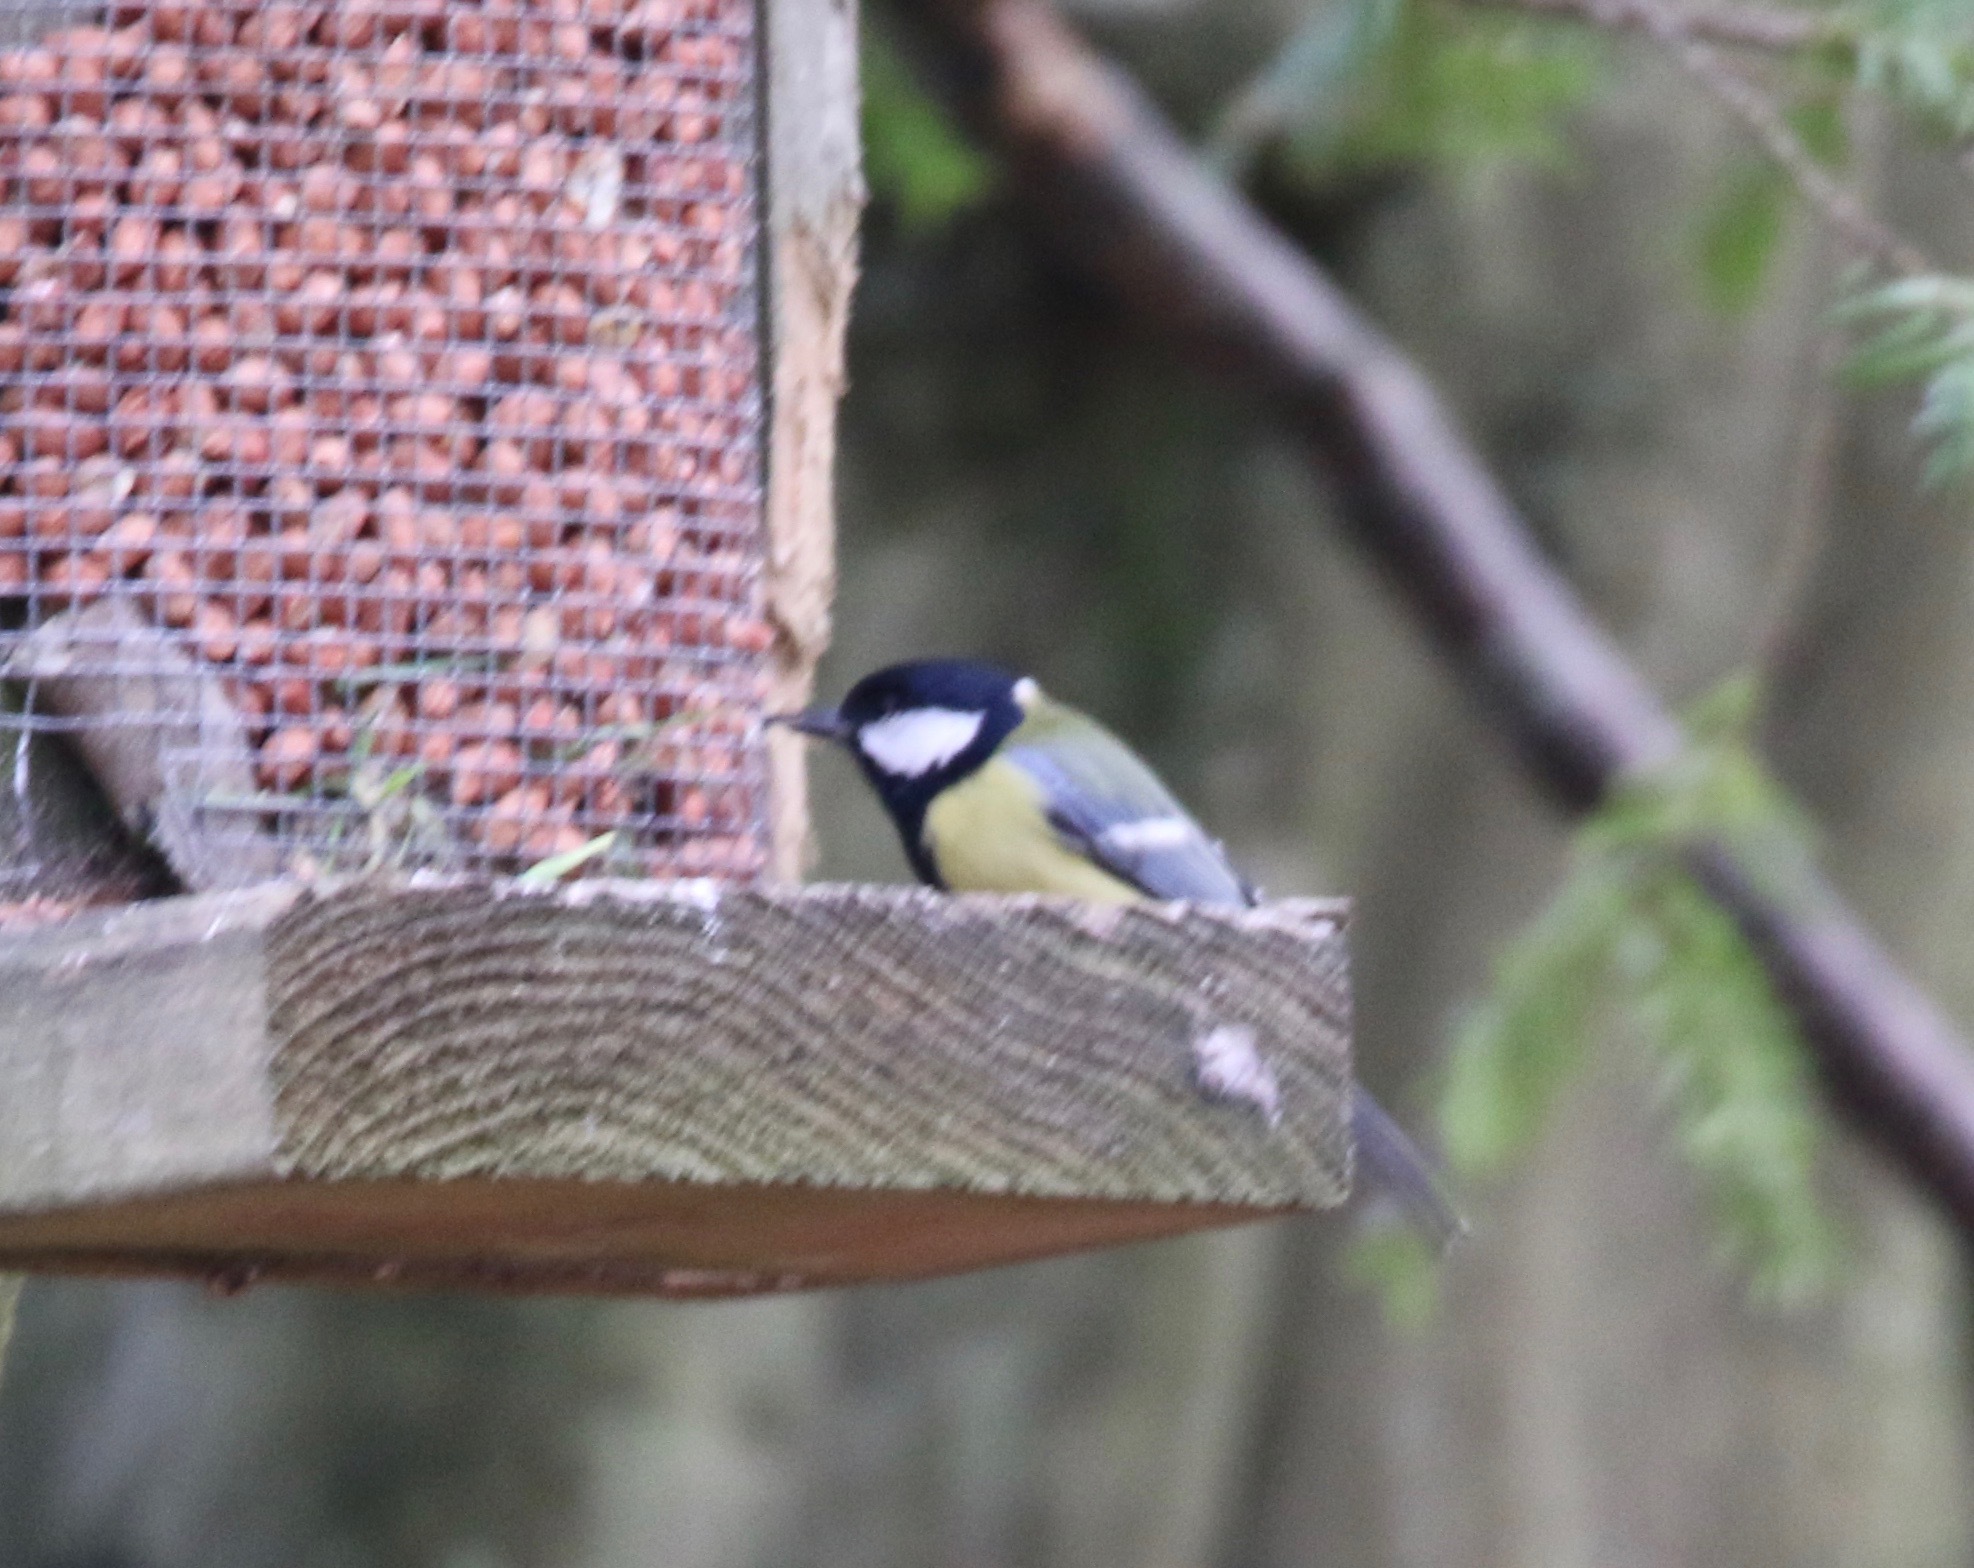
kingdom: Animalia
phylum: Chordata
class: Aves
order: Passeriformes
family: Paridae
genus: Parus
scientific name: Parus major
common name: Great tit
